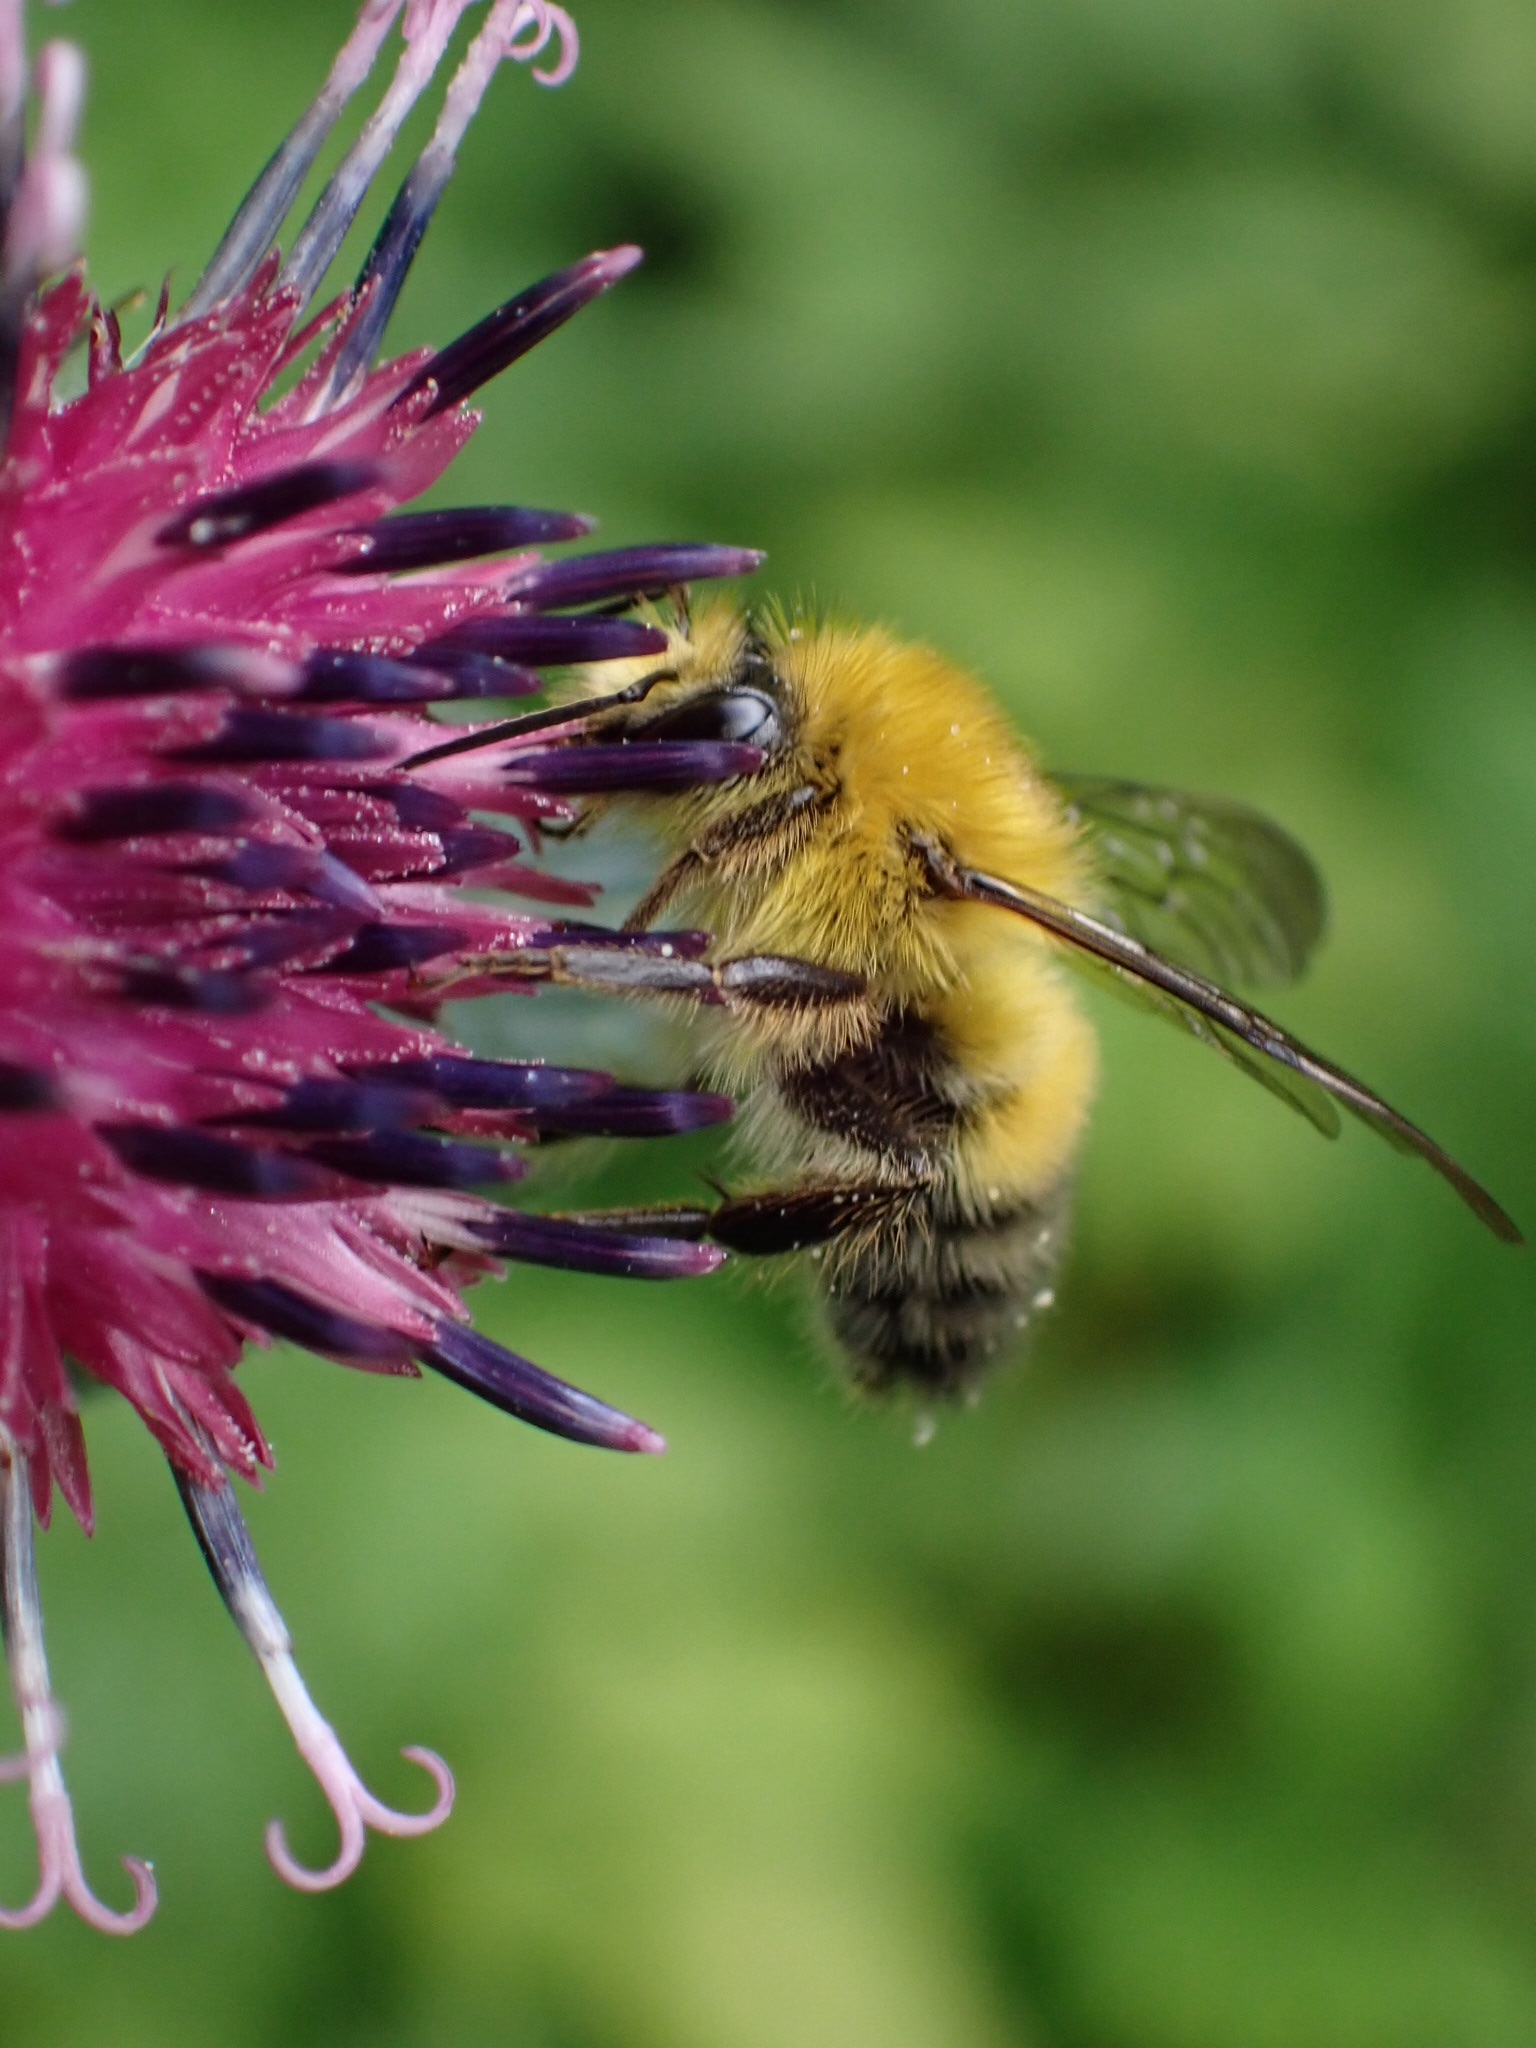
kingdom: Animalia
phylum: Arthropoda
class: Insecta
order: Hymenoptera
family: Apidae
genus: Bombus
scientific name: Bombus modestus
